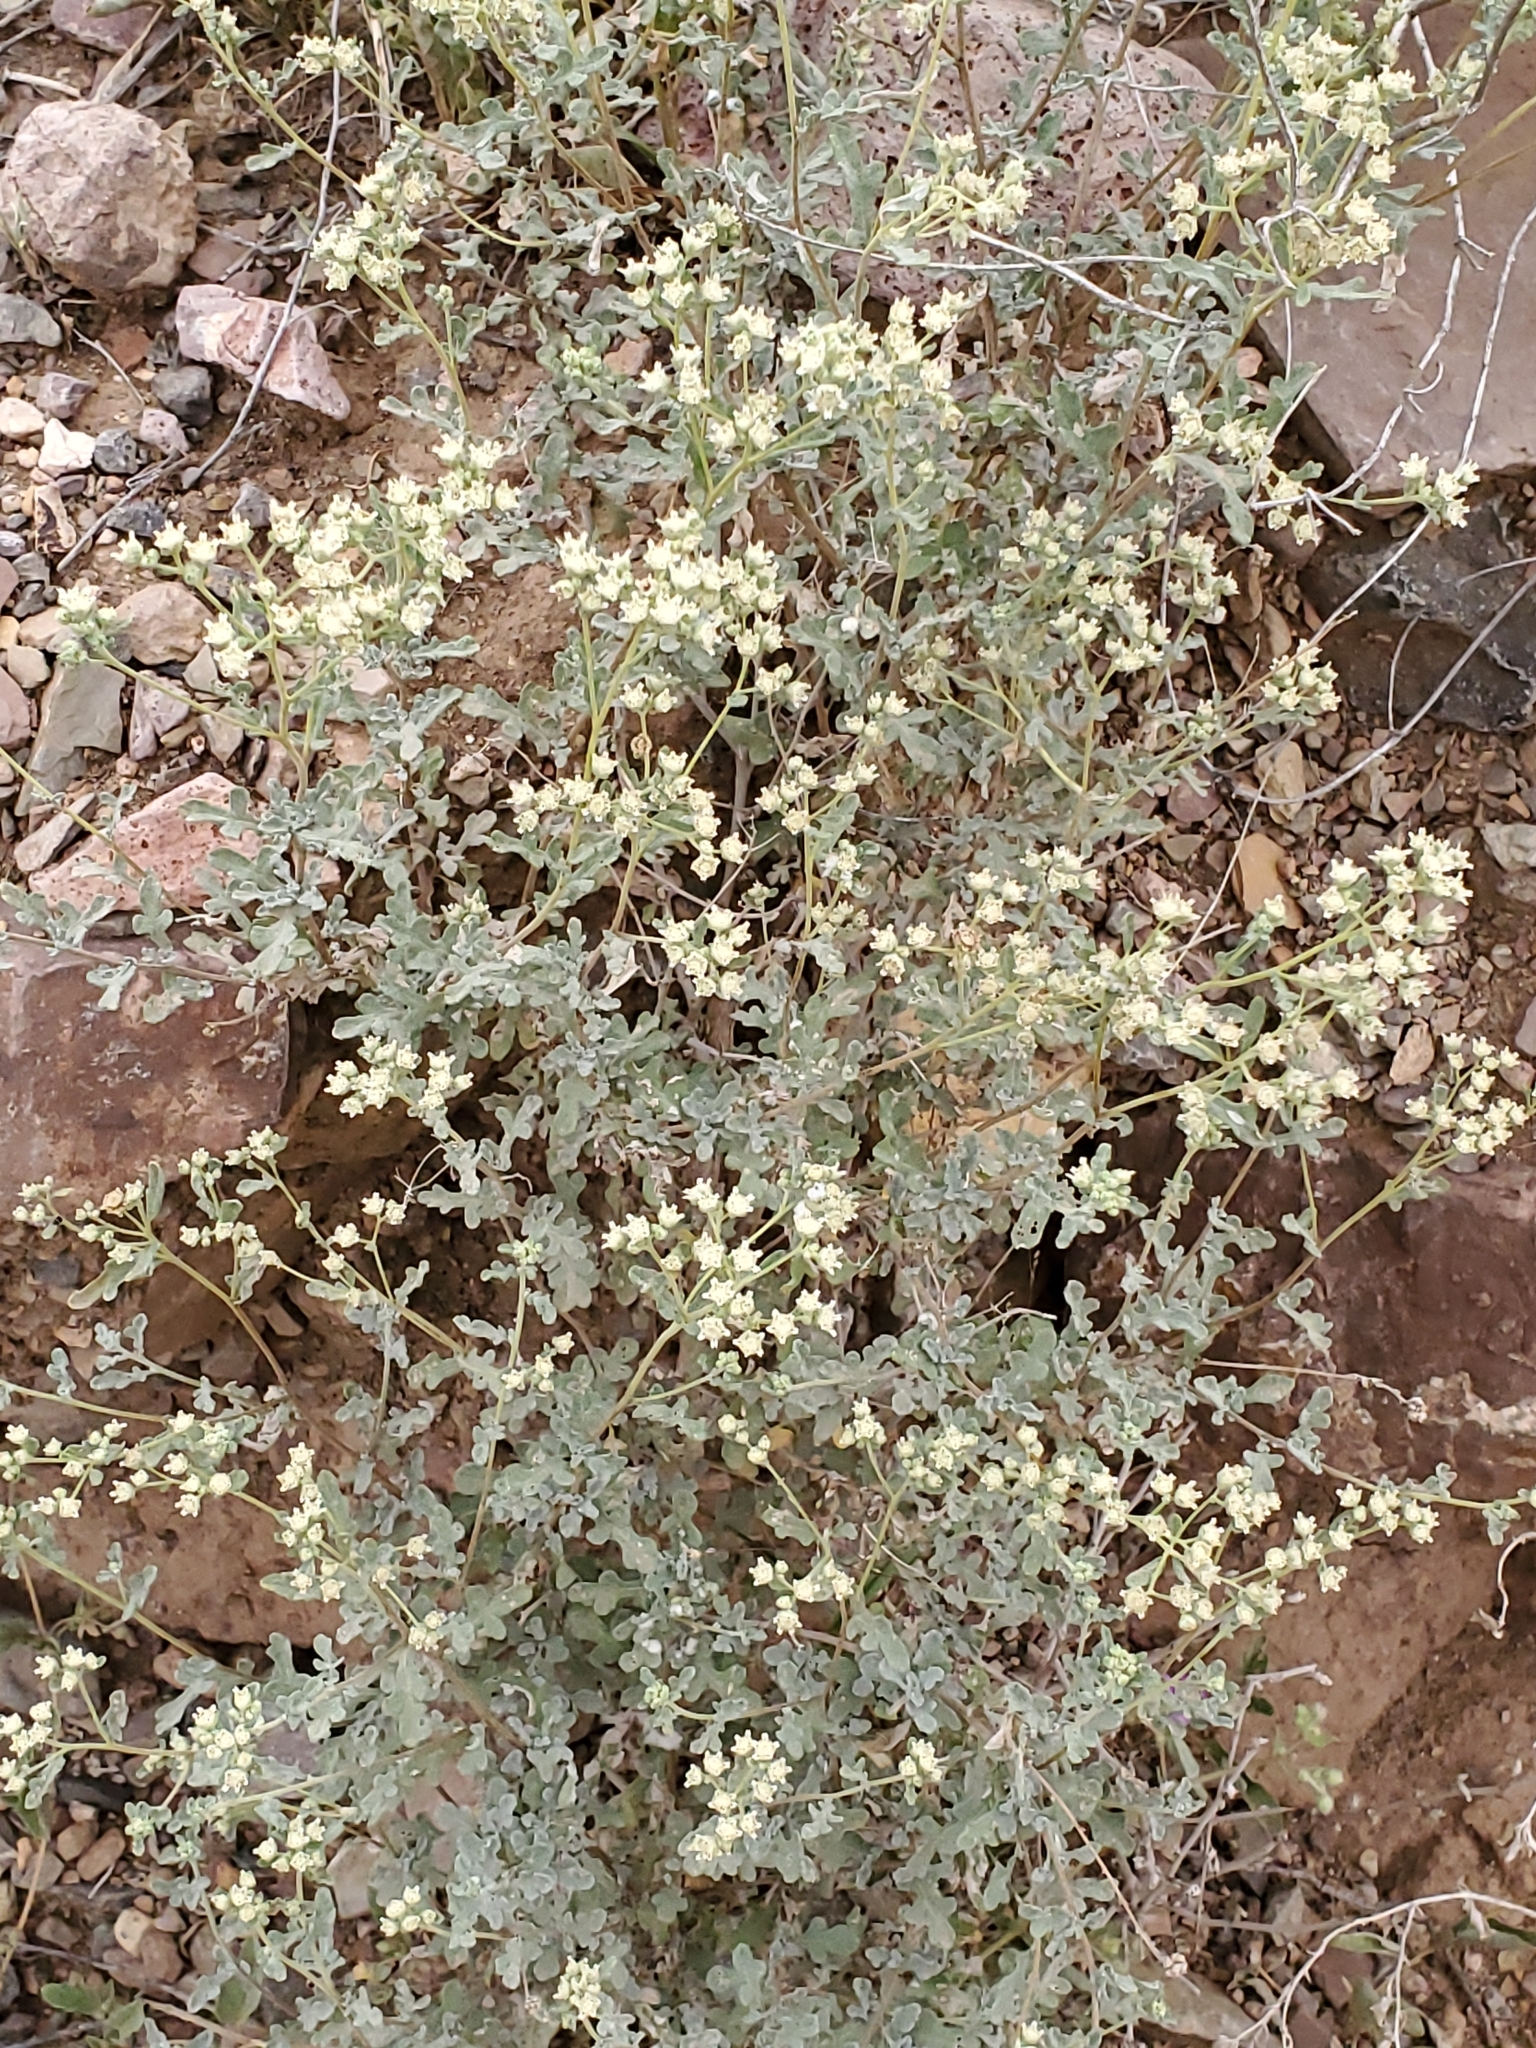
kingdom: Plantae
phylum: Tracheophyta
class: Magnoliopsida
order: Asterales
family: Asteraceae
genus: Parthenium
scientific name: Parthenium incanum
